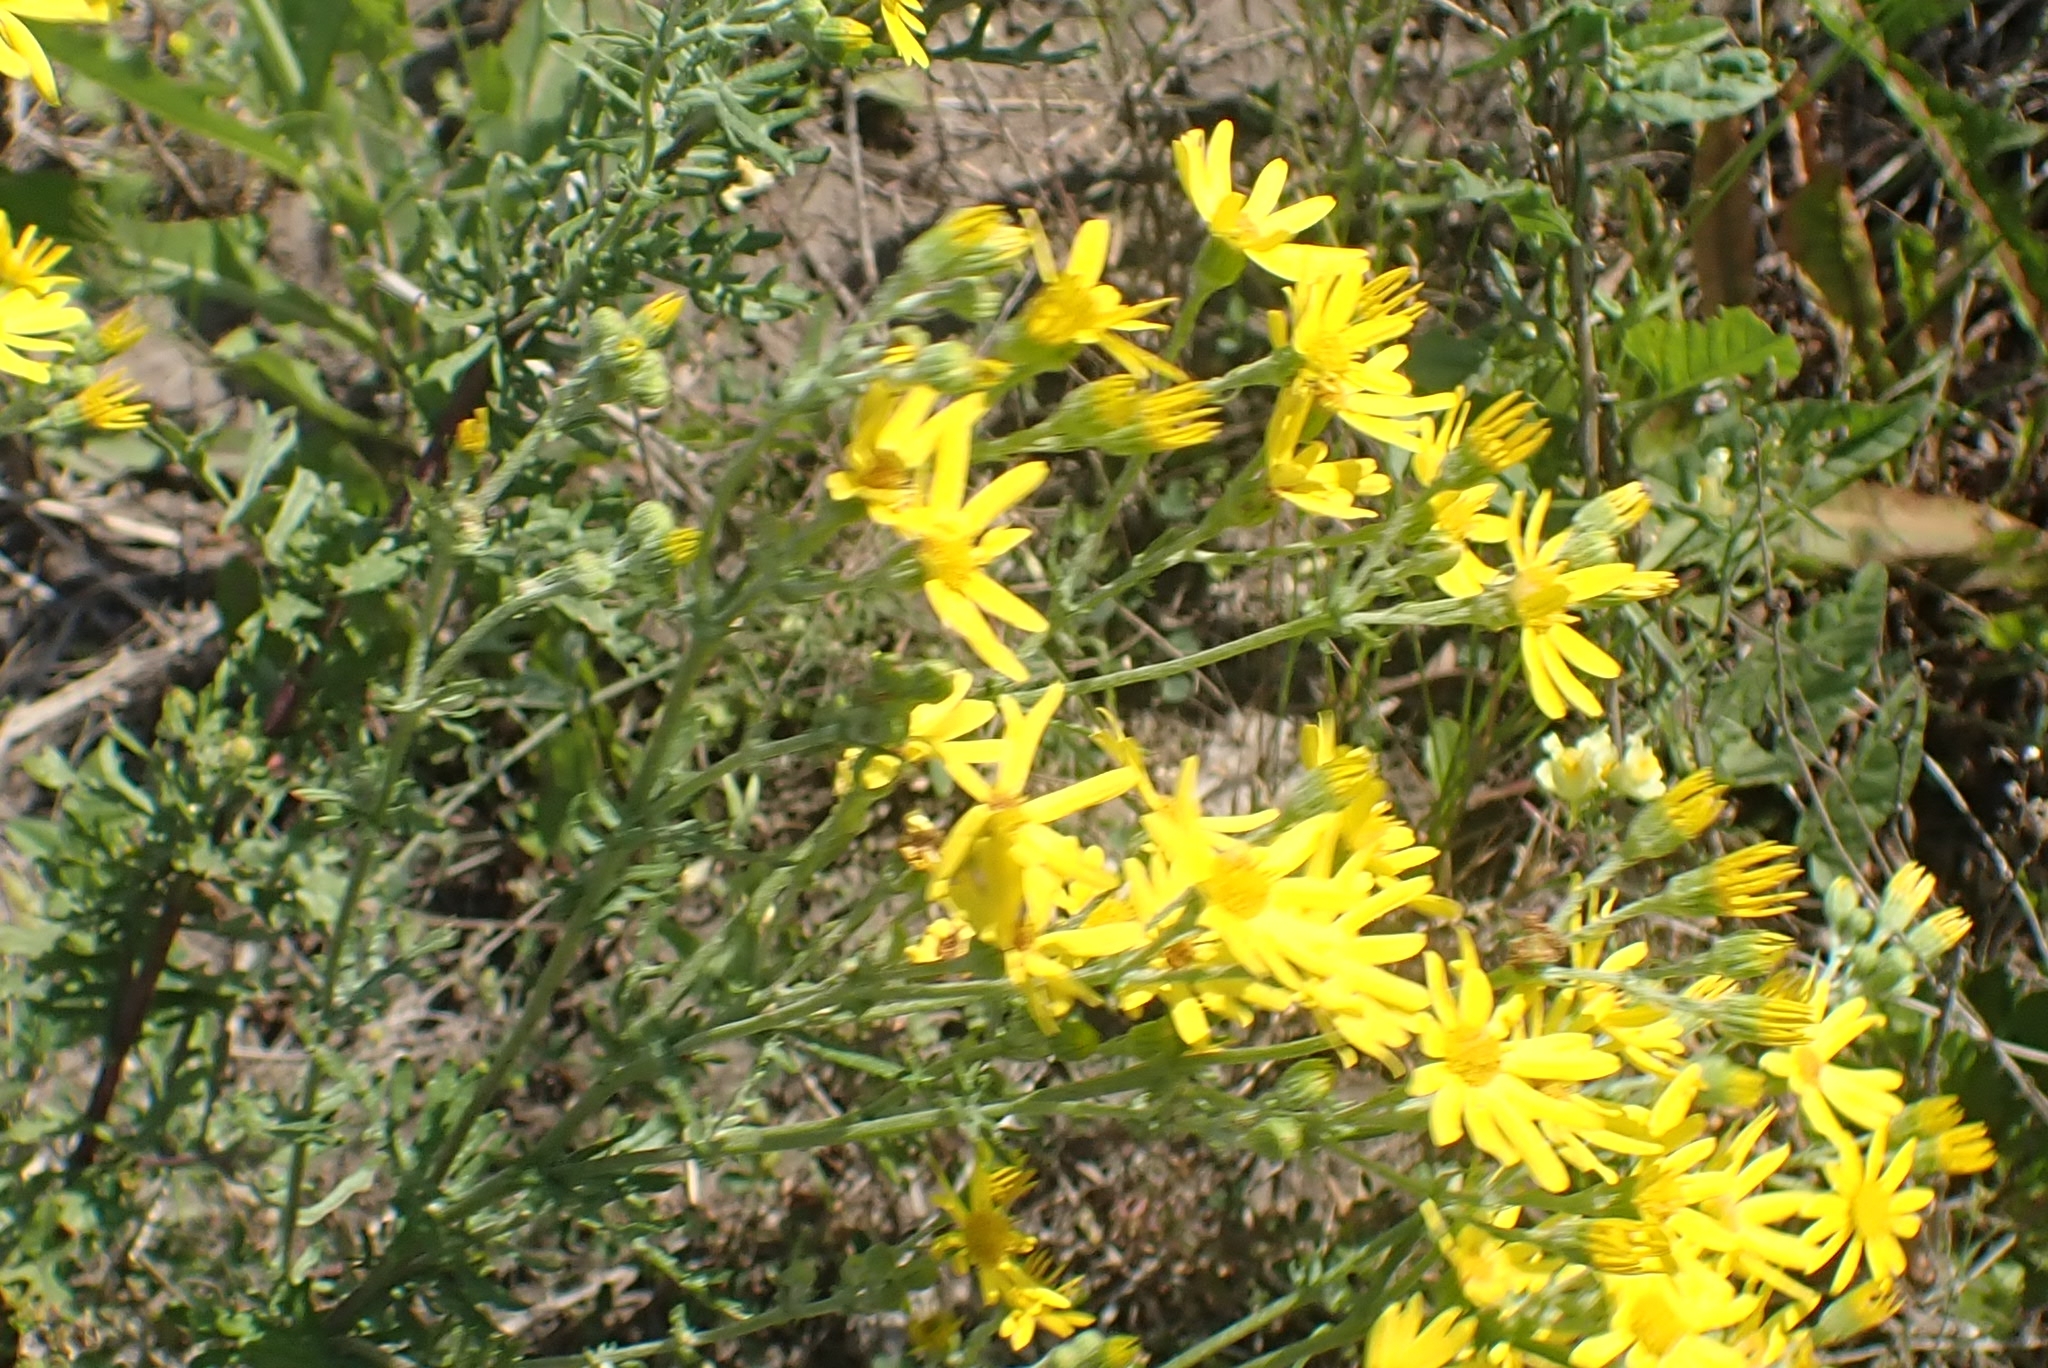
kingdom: Plantae
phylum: Tracheophyta
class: Magnoliopsida
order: Asterales
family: Asteraceae
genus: Jacobaea
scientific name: Jacobaea erucifolia
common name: Hoary ragwort
